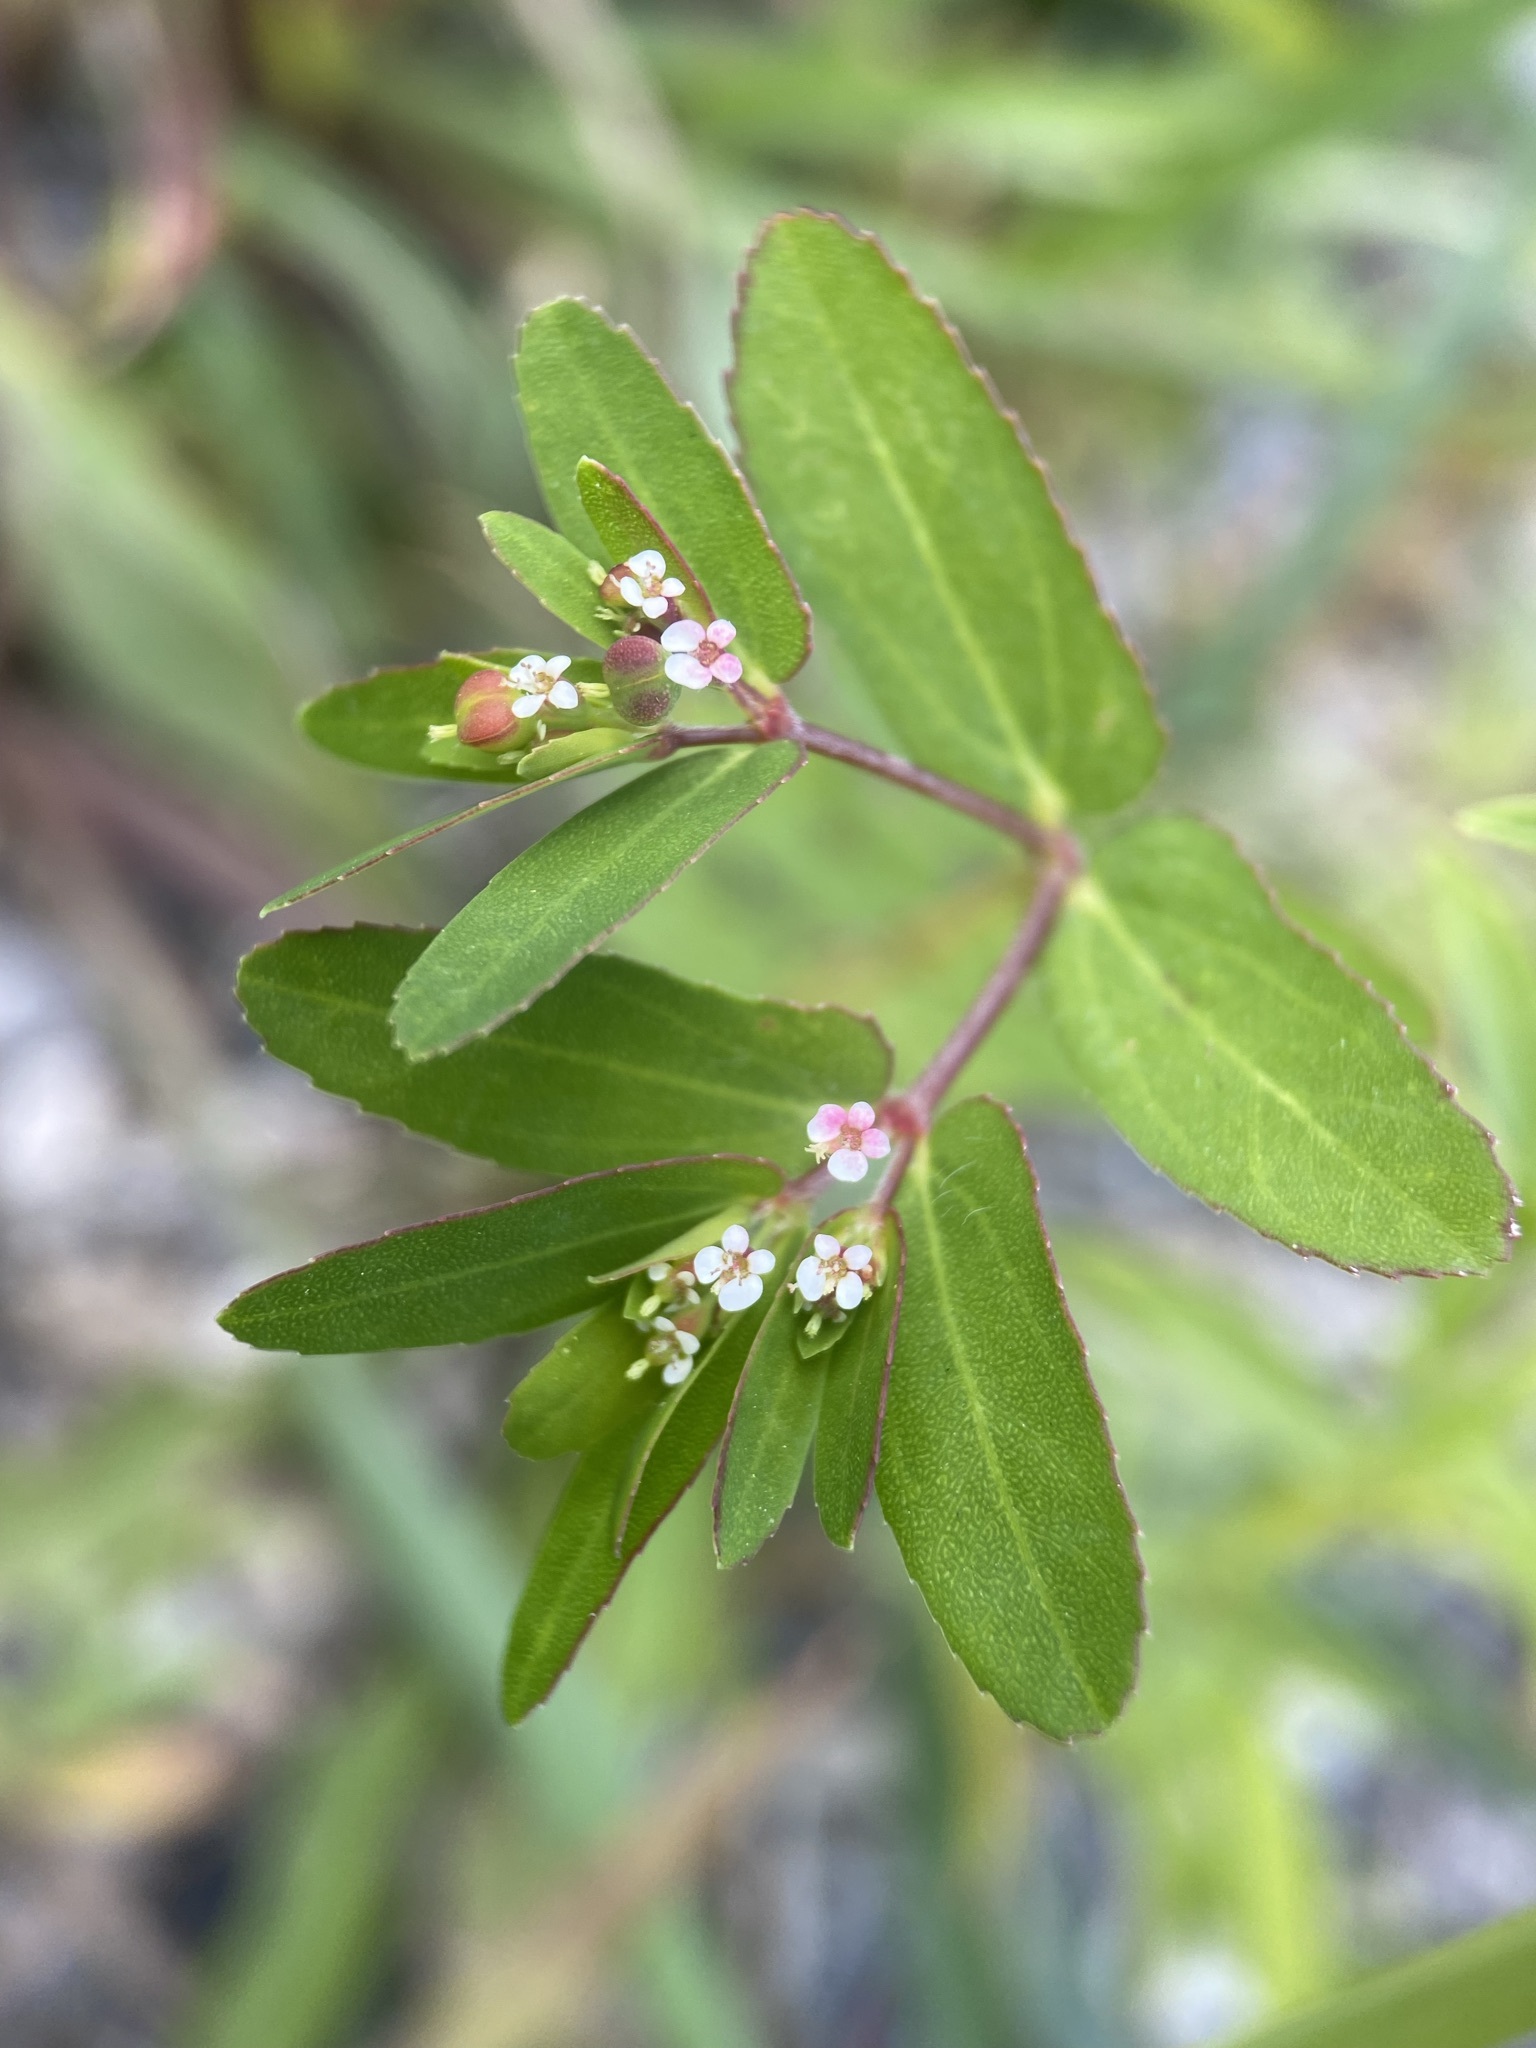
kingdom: Plantae
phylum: Tracheophyta
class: Magnoliopsida
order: Malpighiales
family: Euphorbiaceae
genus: Euphorbia
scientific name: Euphorbia nutans
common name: Eyebane
